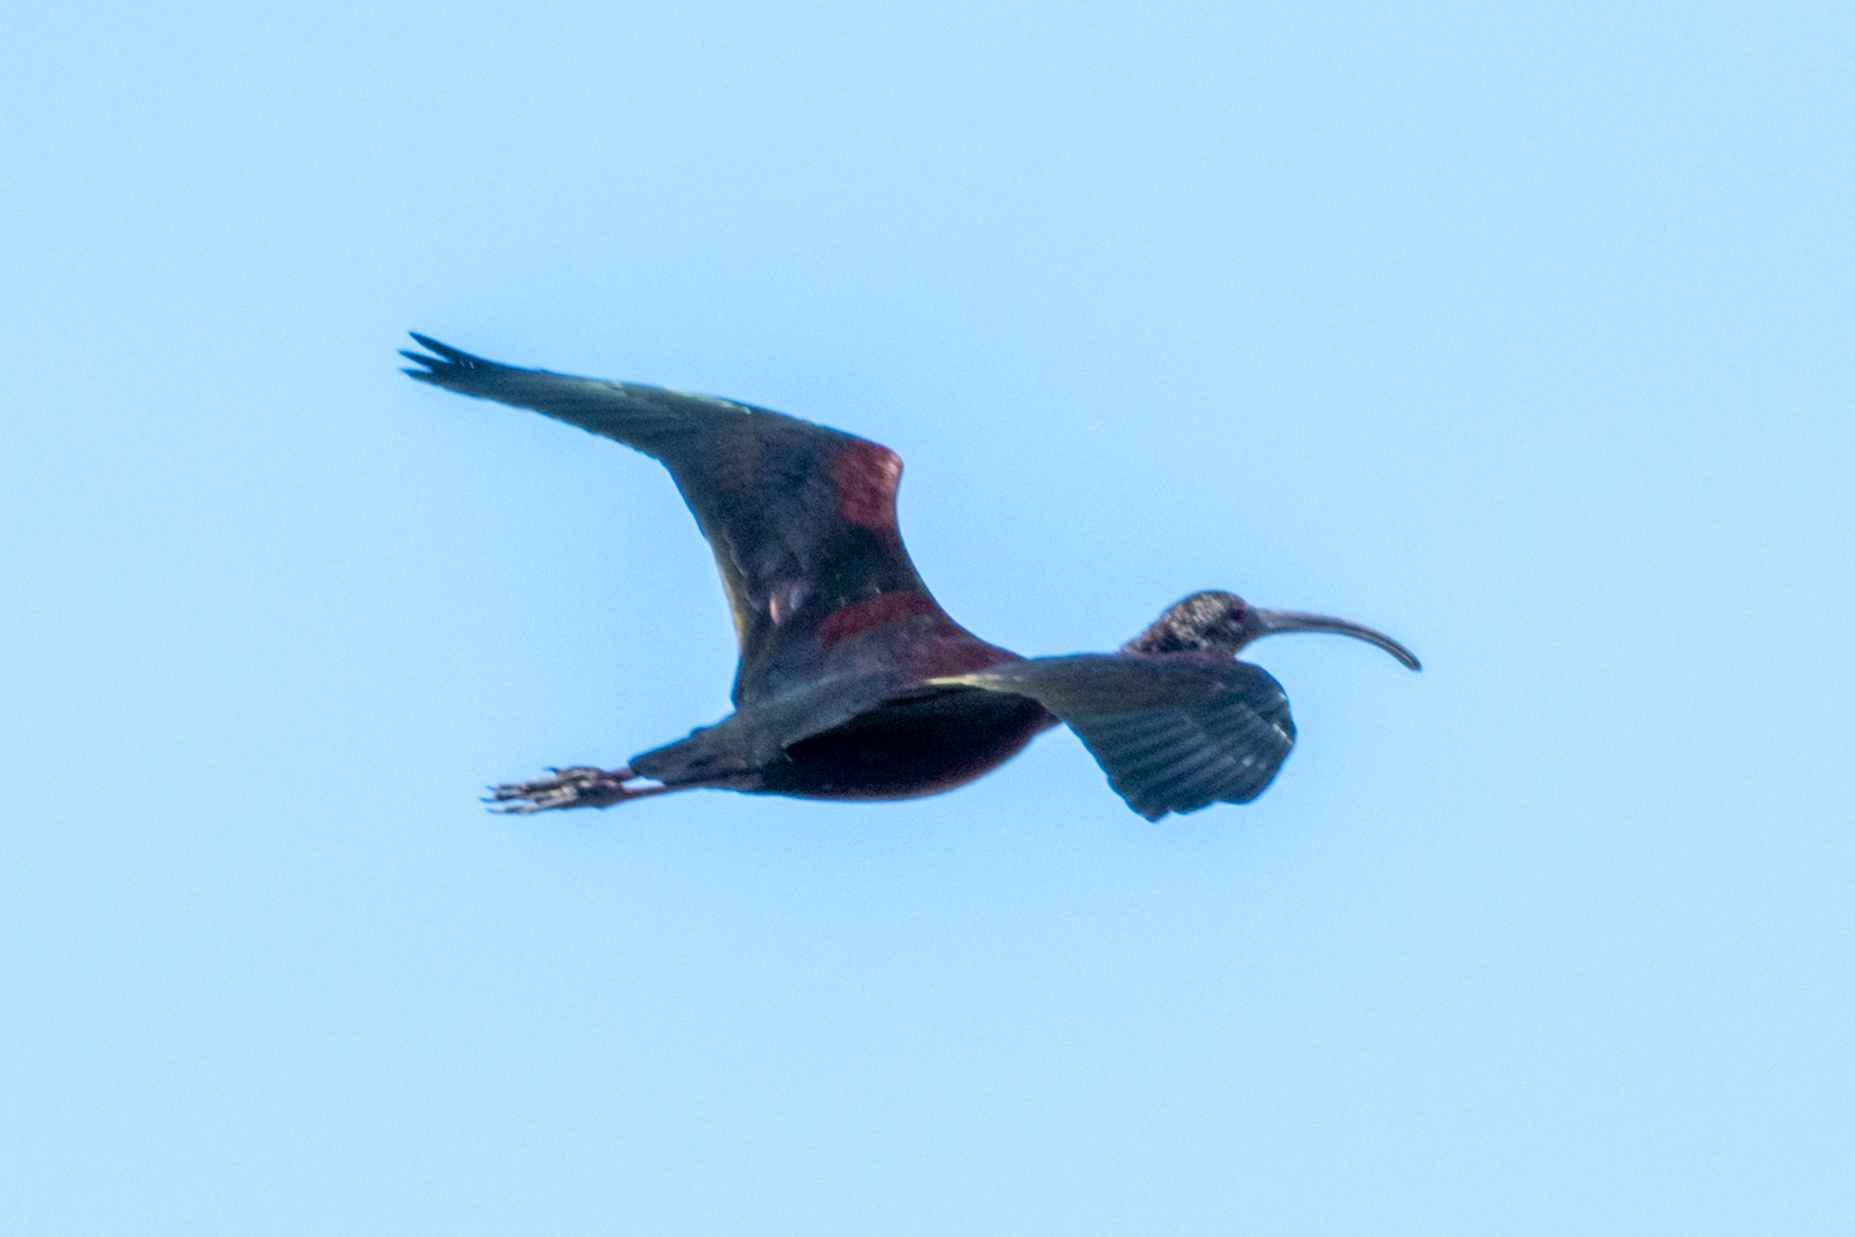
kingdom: Animalia
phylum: Chordata
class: Aves
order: Pelecaniformes
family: Threskiornithidae
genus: Plegadis
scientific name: Plegadis chihi
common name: White-faced ibis
